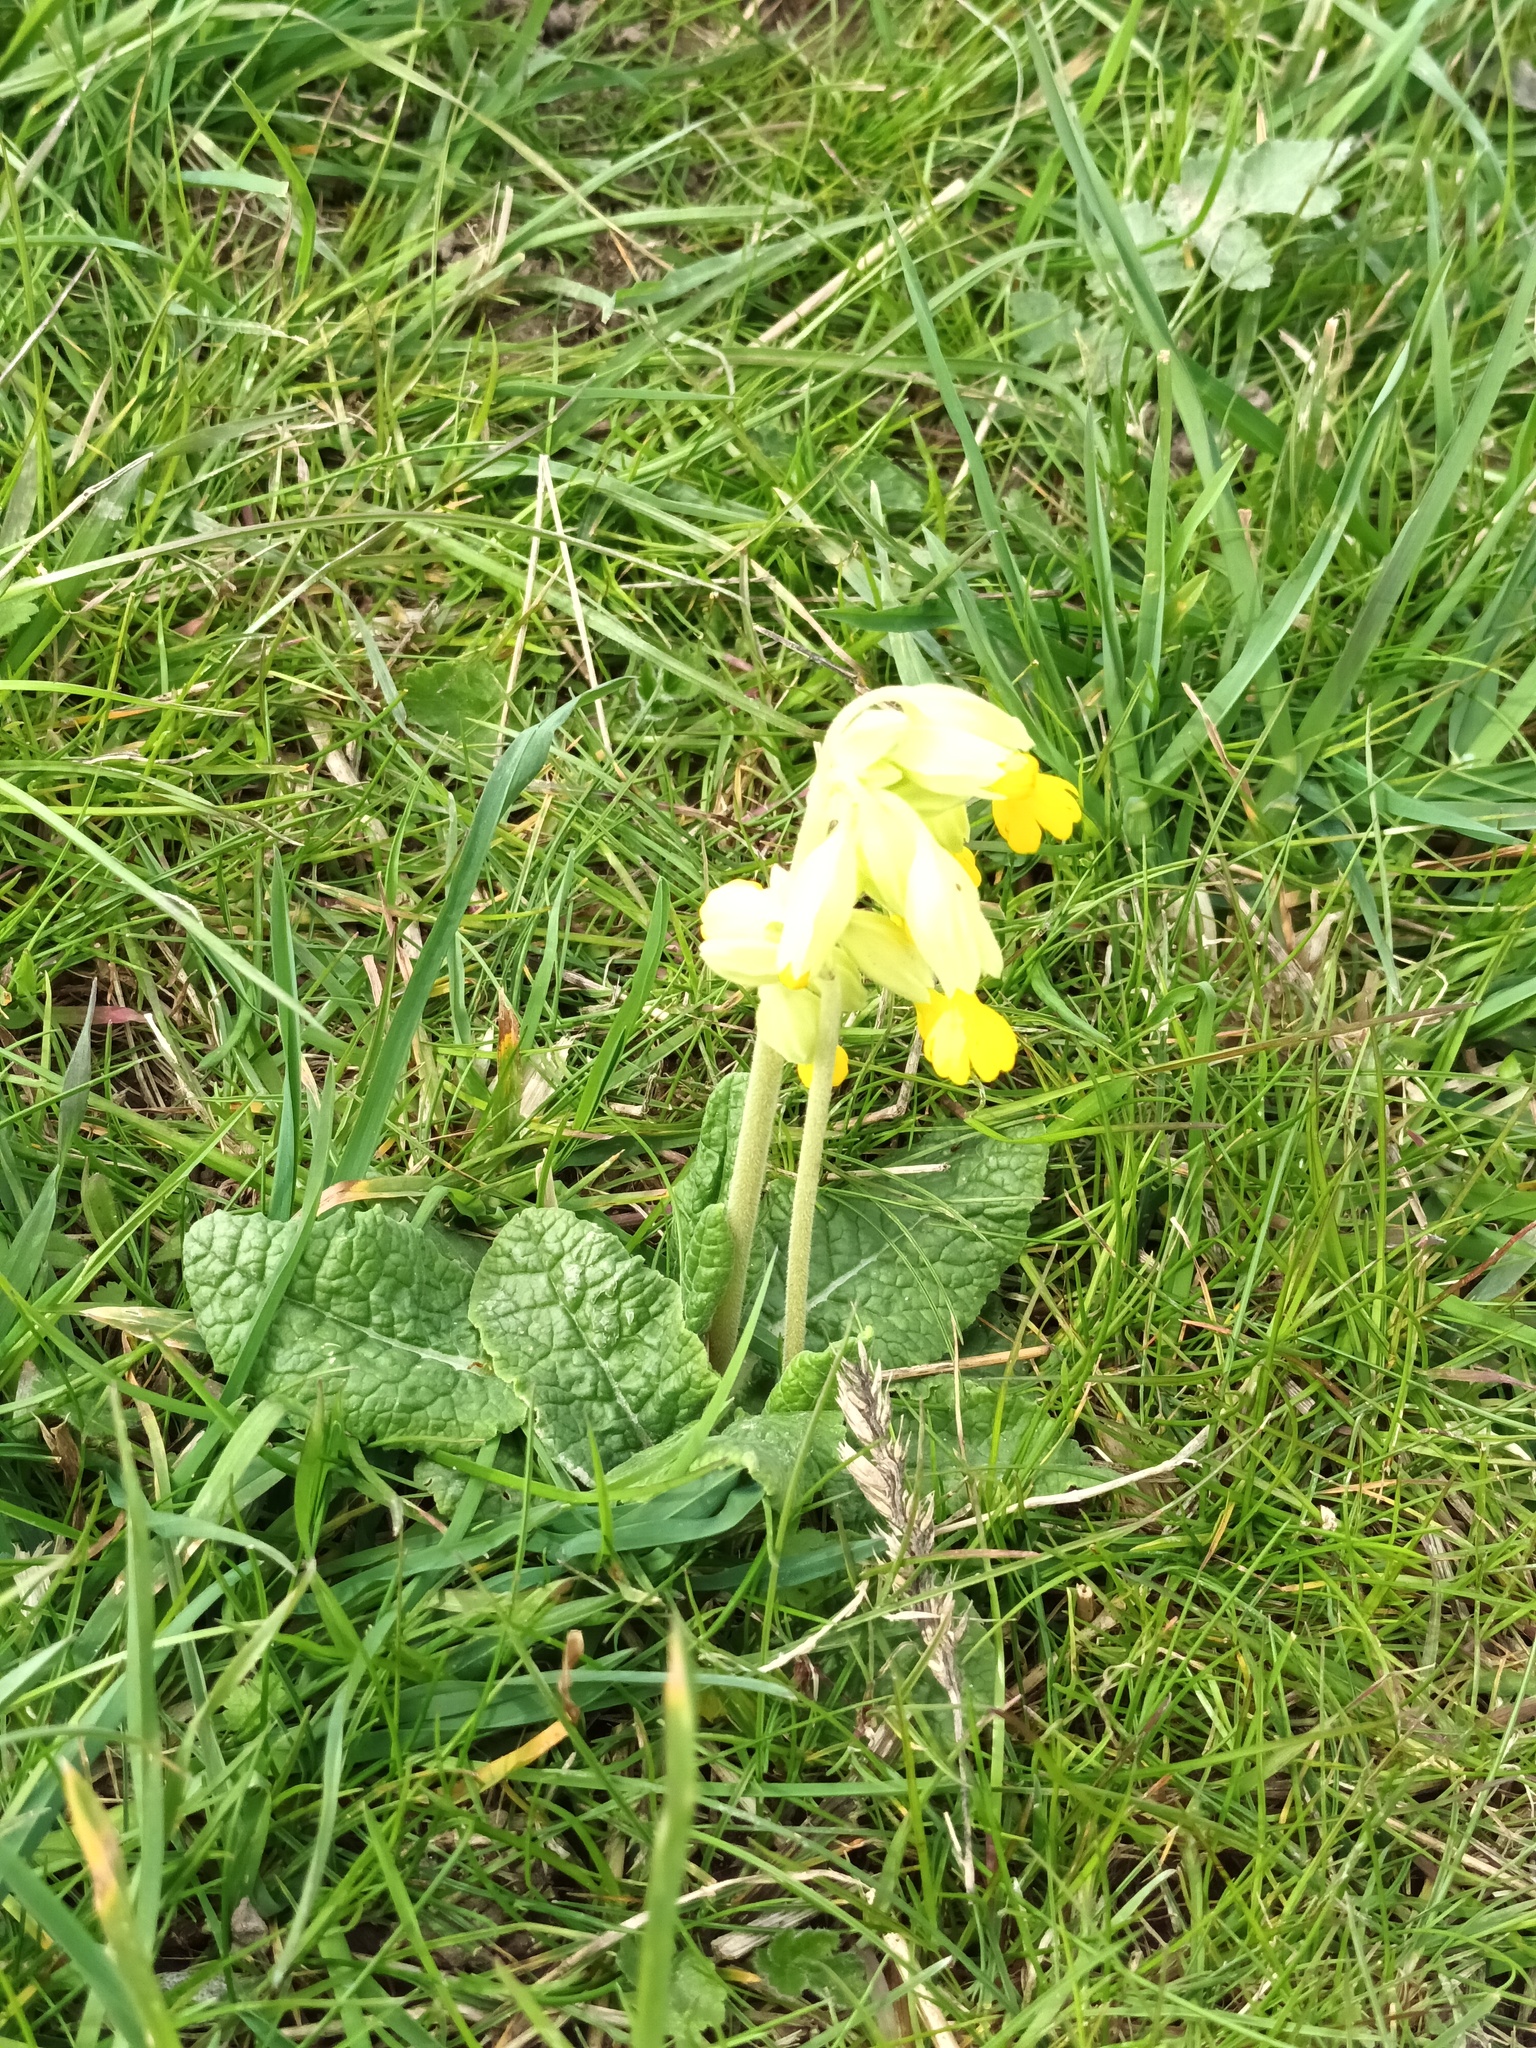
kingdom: Plantae
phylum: Tracheophyta
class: Magnoliopsida
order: Ericales
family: Primulaceae
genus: Primula
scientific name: Primula veris
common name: Cowslip
